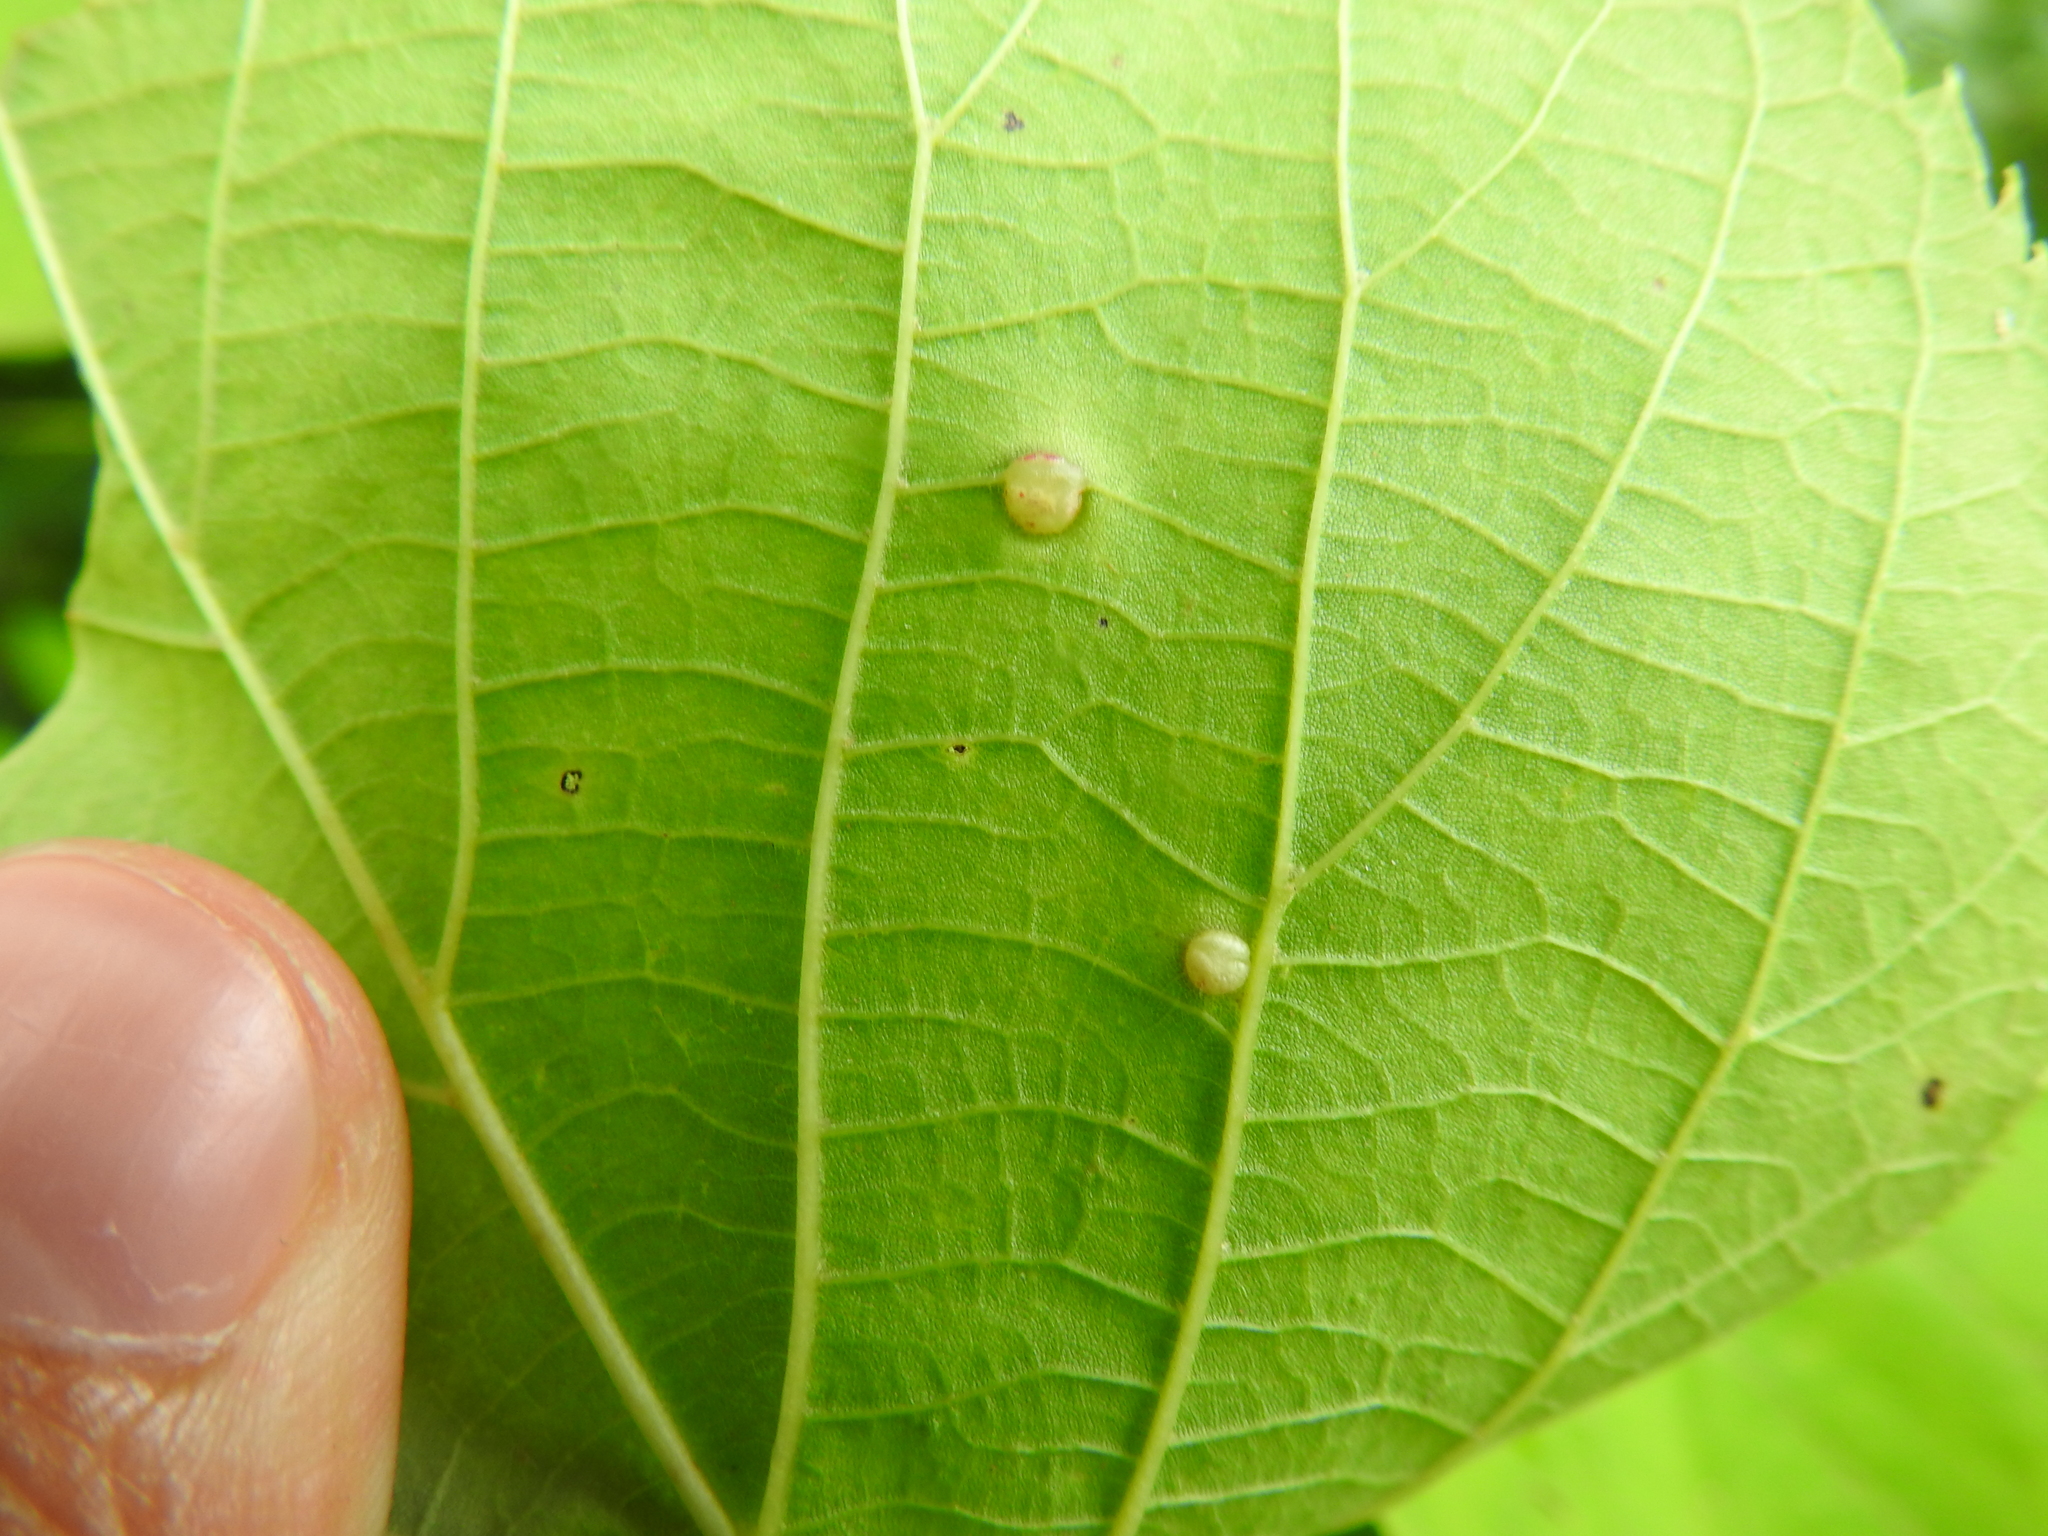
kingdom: Animalia
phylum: Arthropoda
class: Insecta
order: Diptera
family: Cecidomyiidae
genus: Contarinia
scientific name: Contarinia verrucicola
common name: Linden wart gall midge
